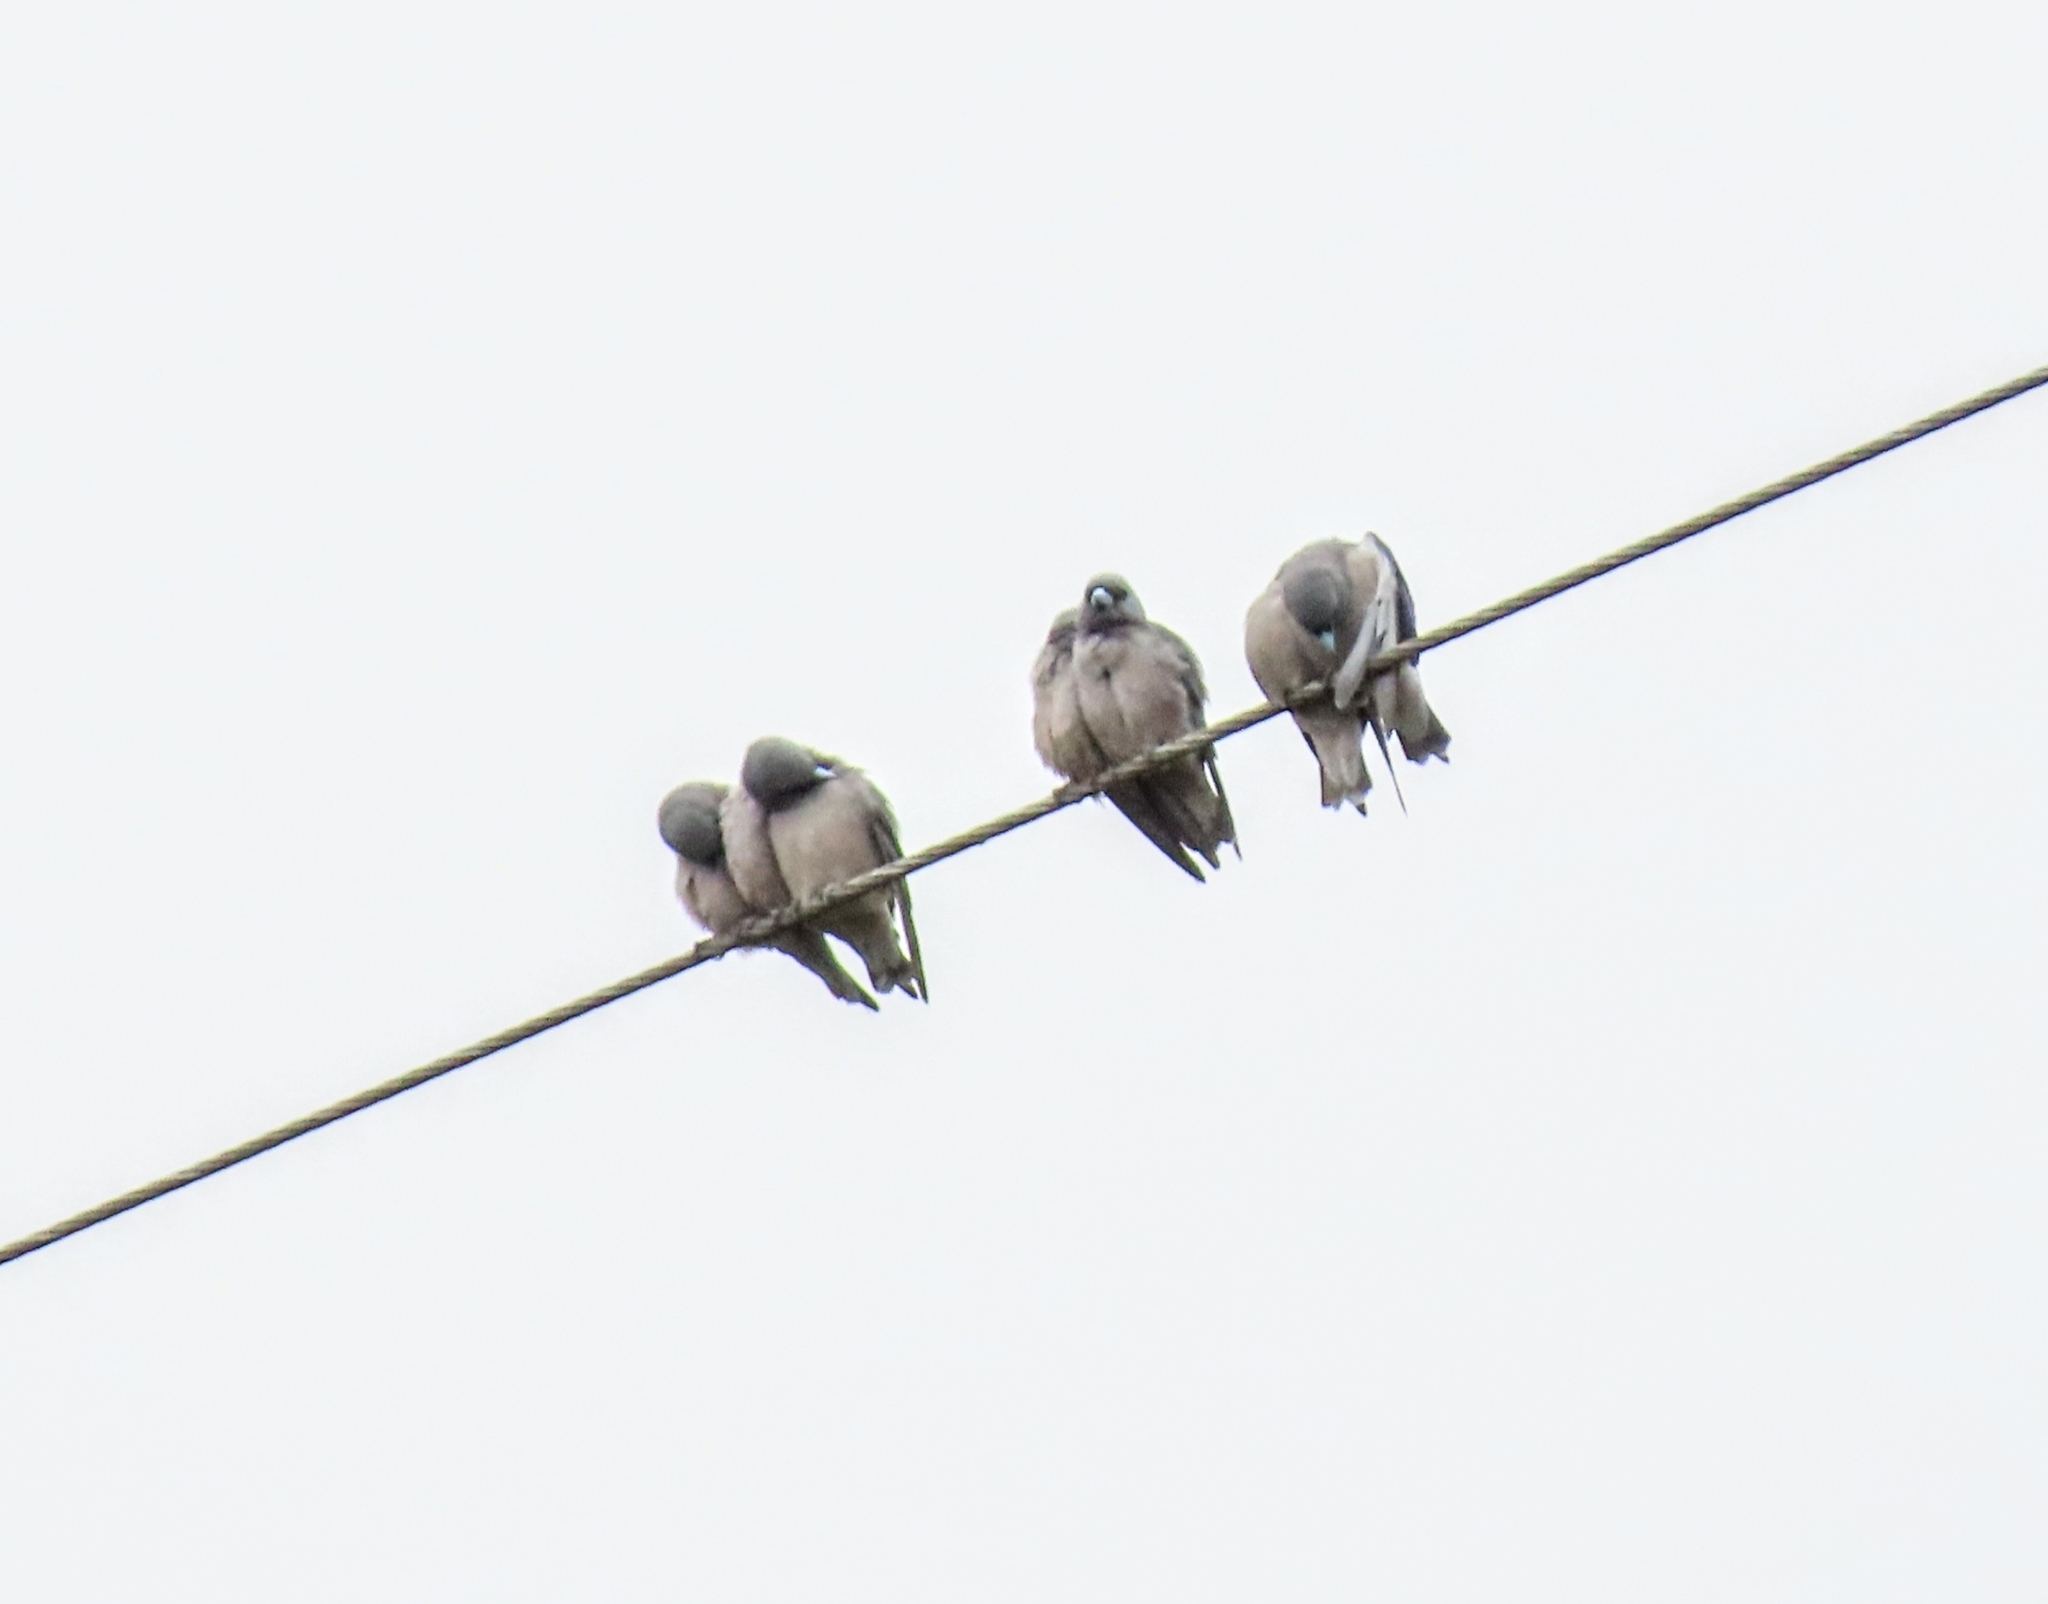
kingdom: Animalia
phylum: Chordata
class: Aves
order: Passeriformes
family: Artamidae
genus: Artamus
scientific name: Artamus fuscus
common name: Ashy woodswallow
